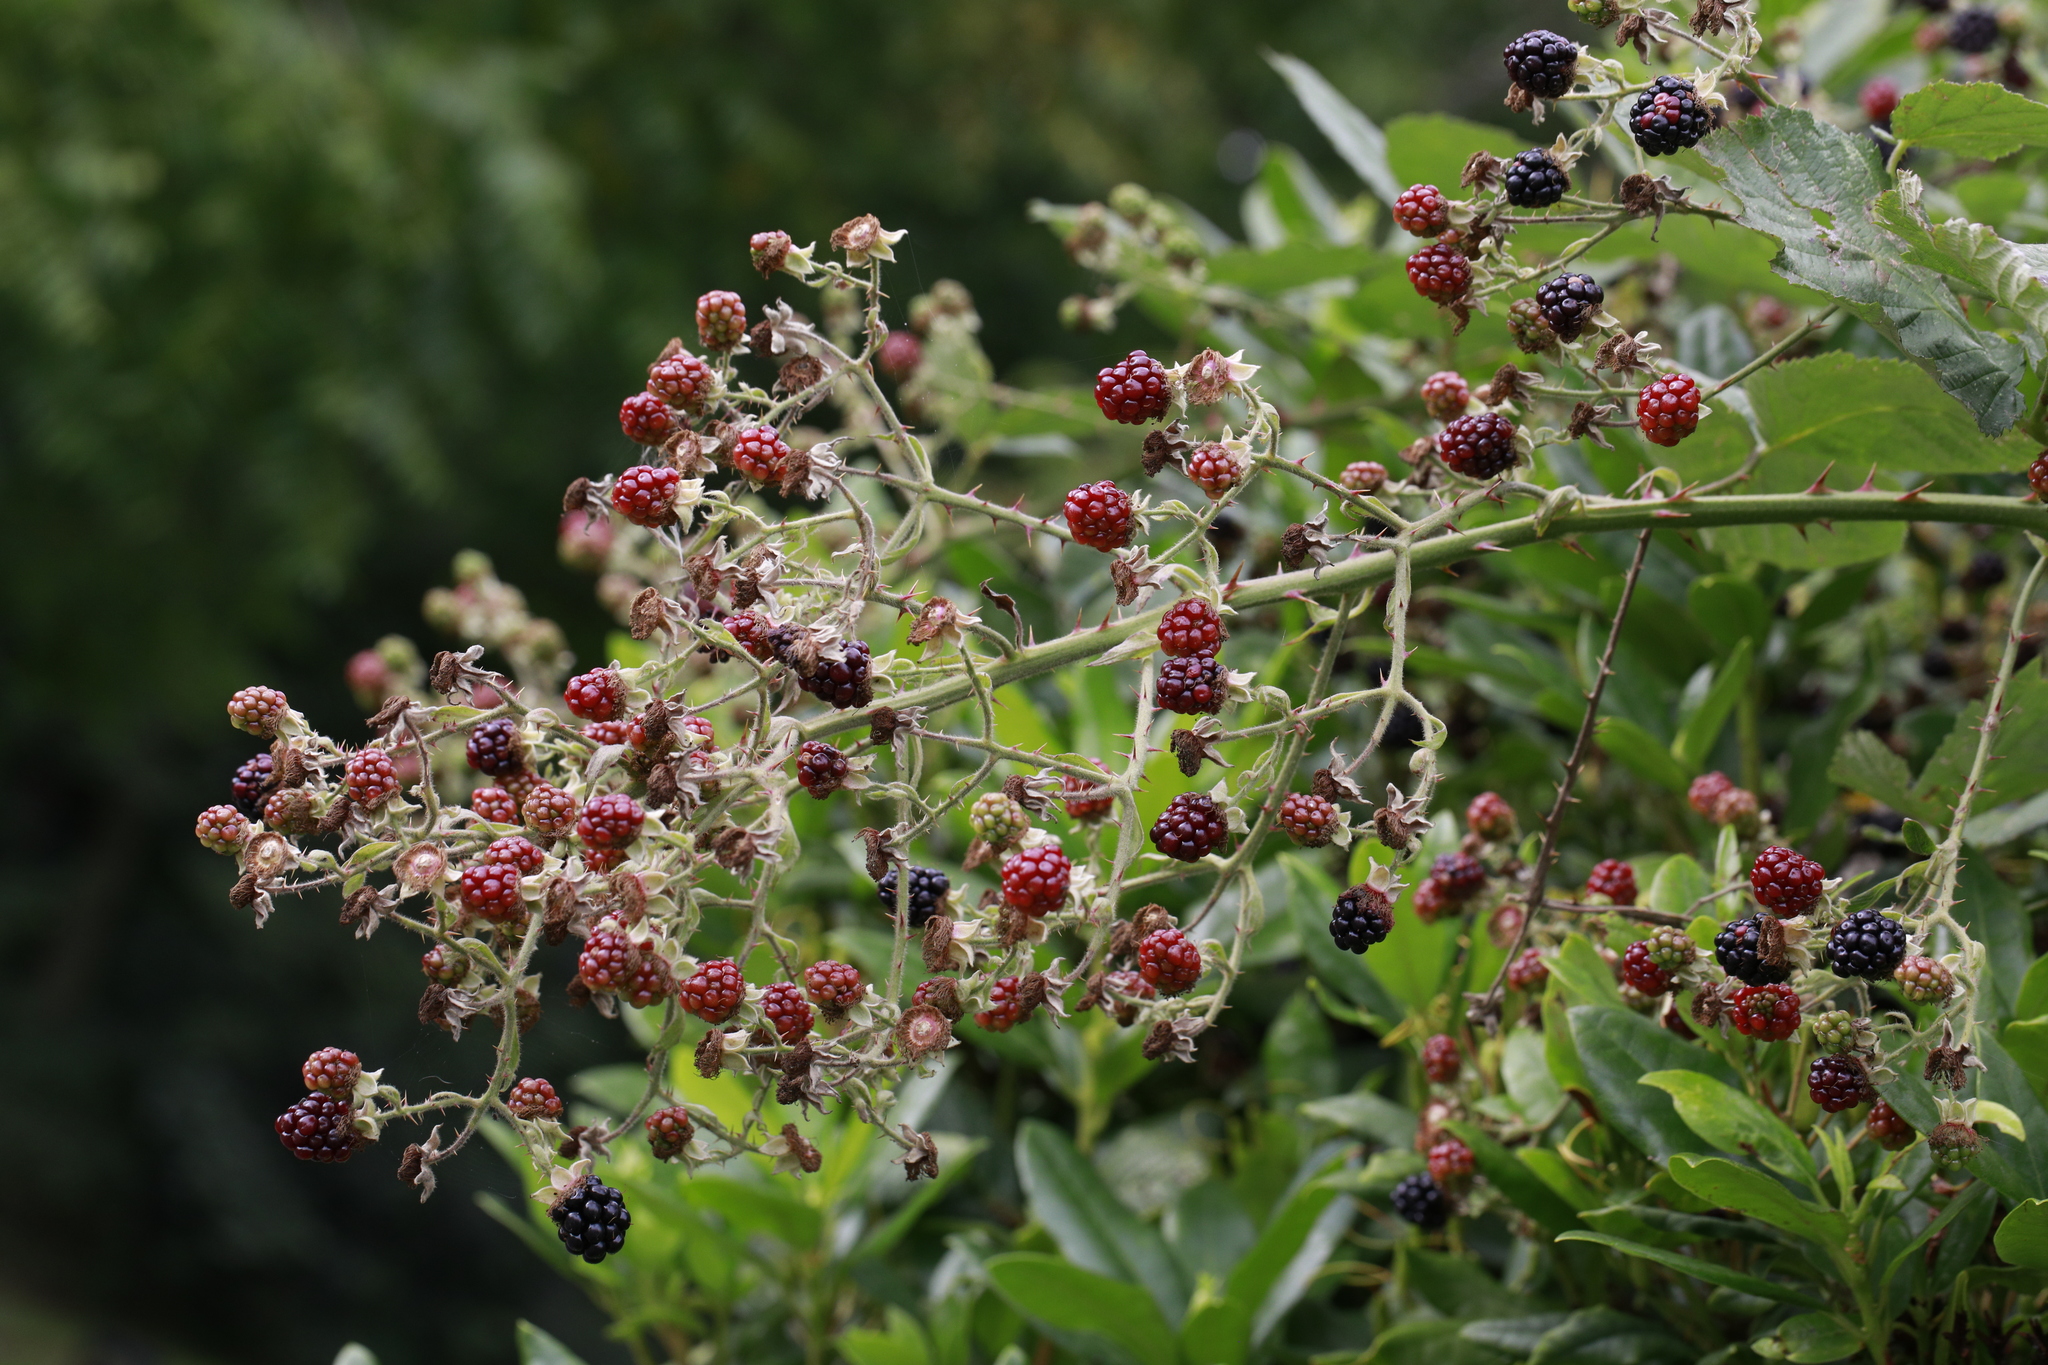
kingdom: Plantae
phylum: Tracheophyta
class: Magnoliopsida
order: Rosales
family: Rosaceae
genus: Rubus
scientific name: Rubus armeniacus
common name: Himalayan blackberry
